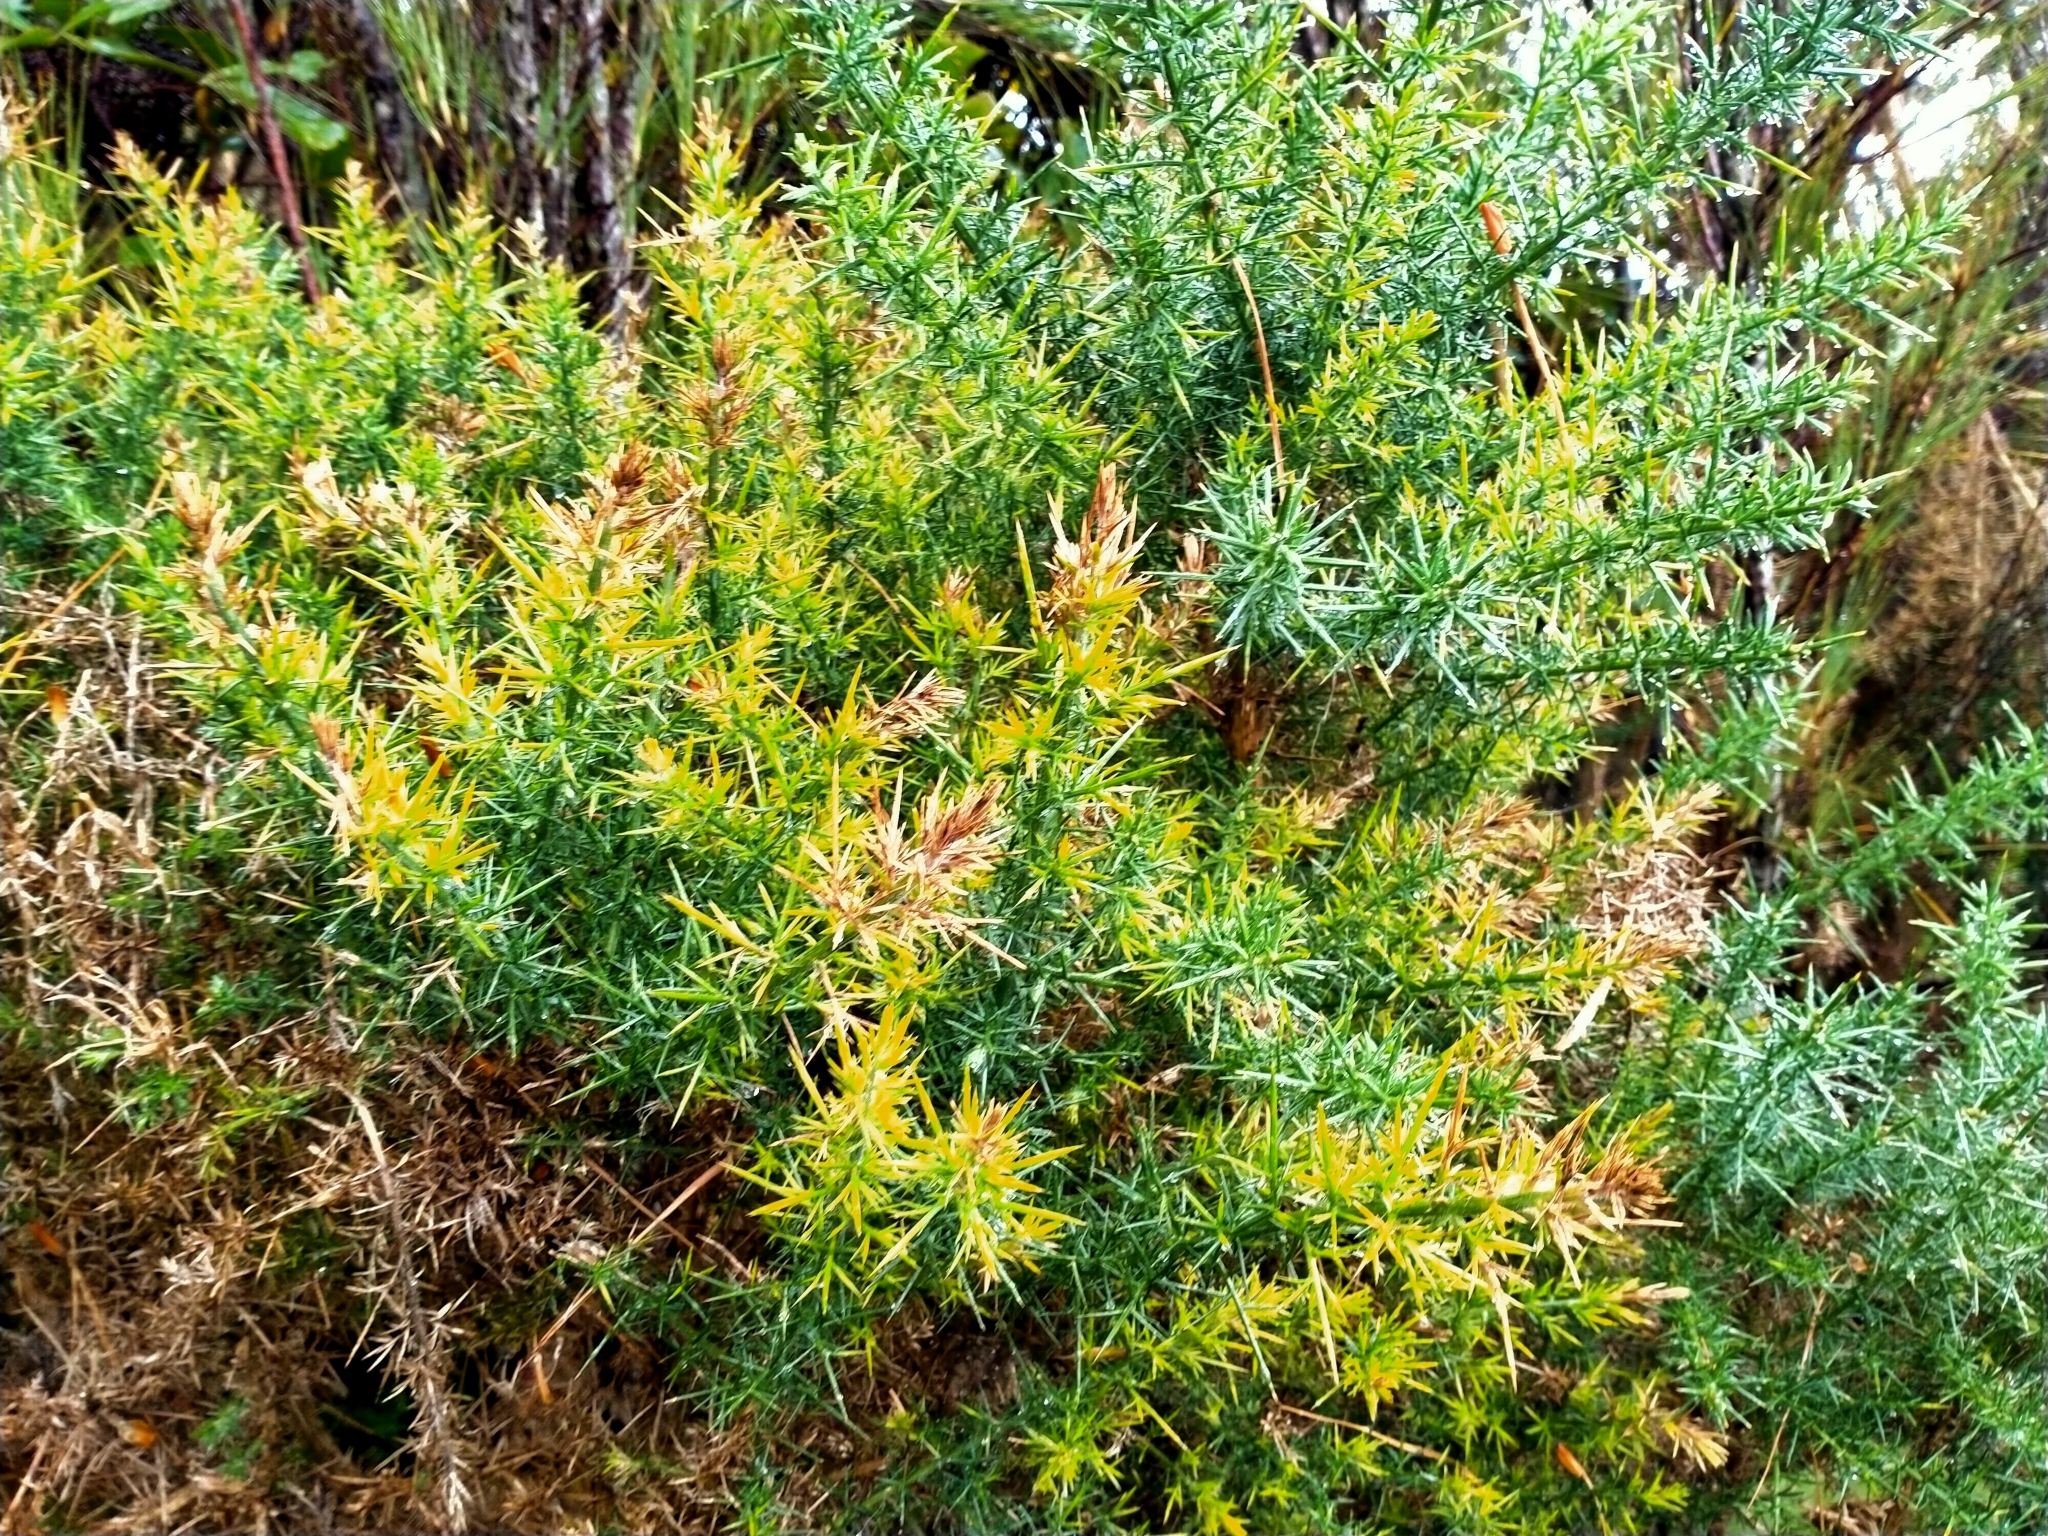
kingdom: Plantae
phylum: Tracheophyta
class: Magnoliopsida
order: Fabales
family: Fabaceae
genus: Ulex
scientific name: Ulex europaeus
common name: Common gorse
